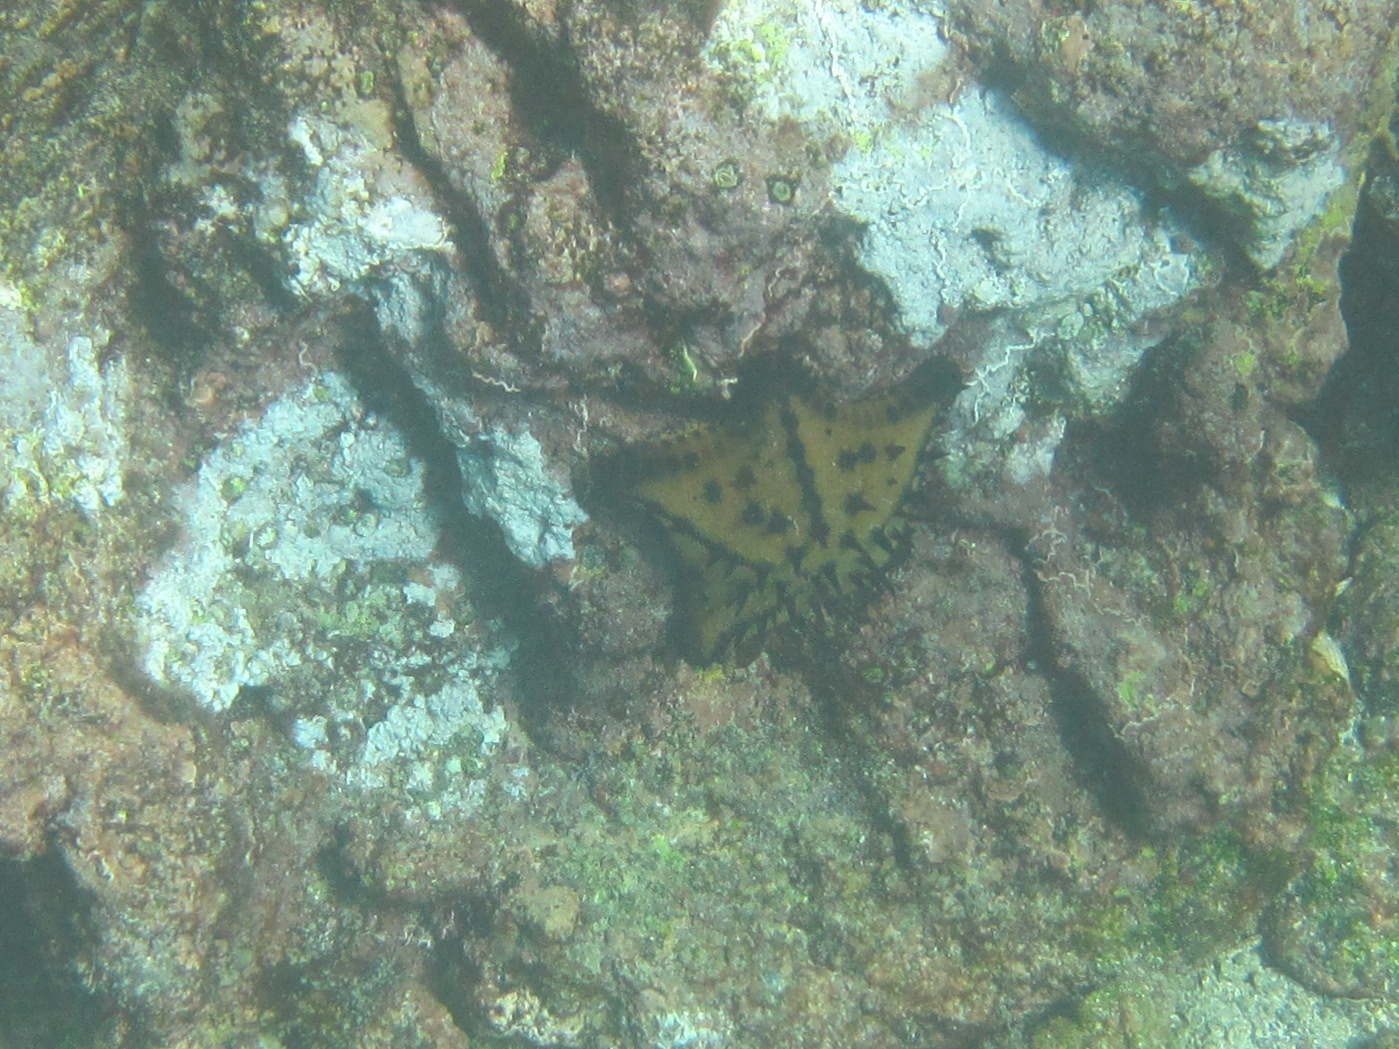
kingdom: Animalia
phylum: Echinodermata
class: Asteroidea
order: Valvatida
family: Oreasteridae
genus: Nidorellia
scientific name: Nidorellia armata
